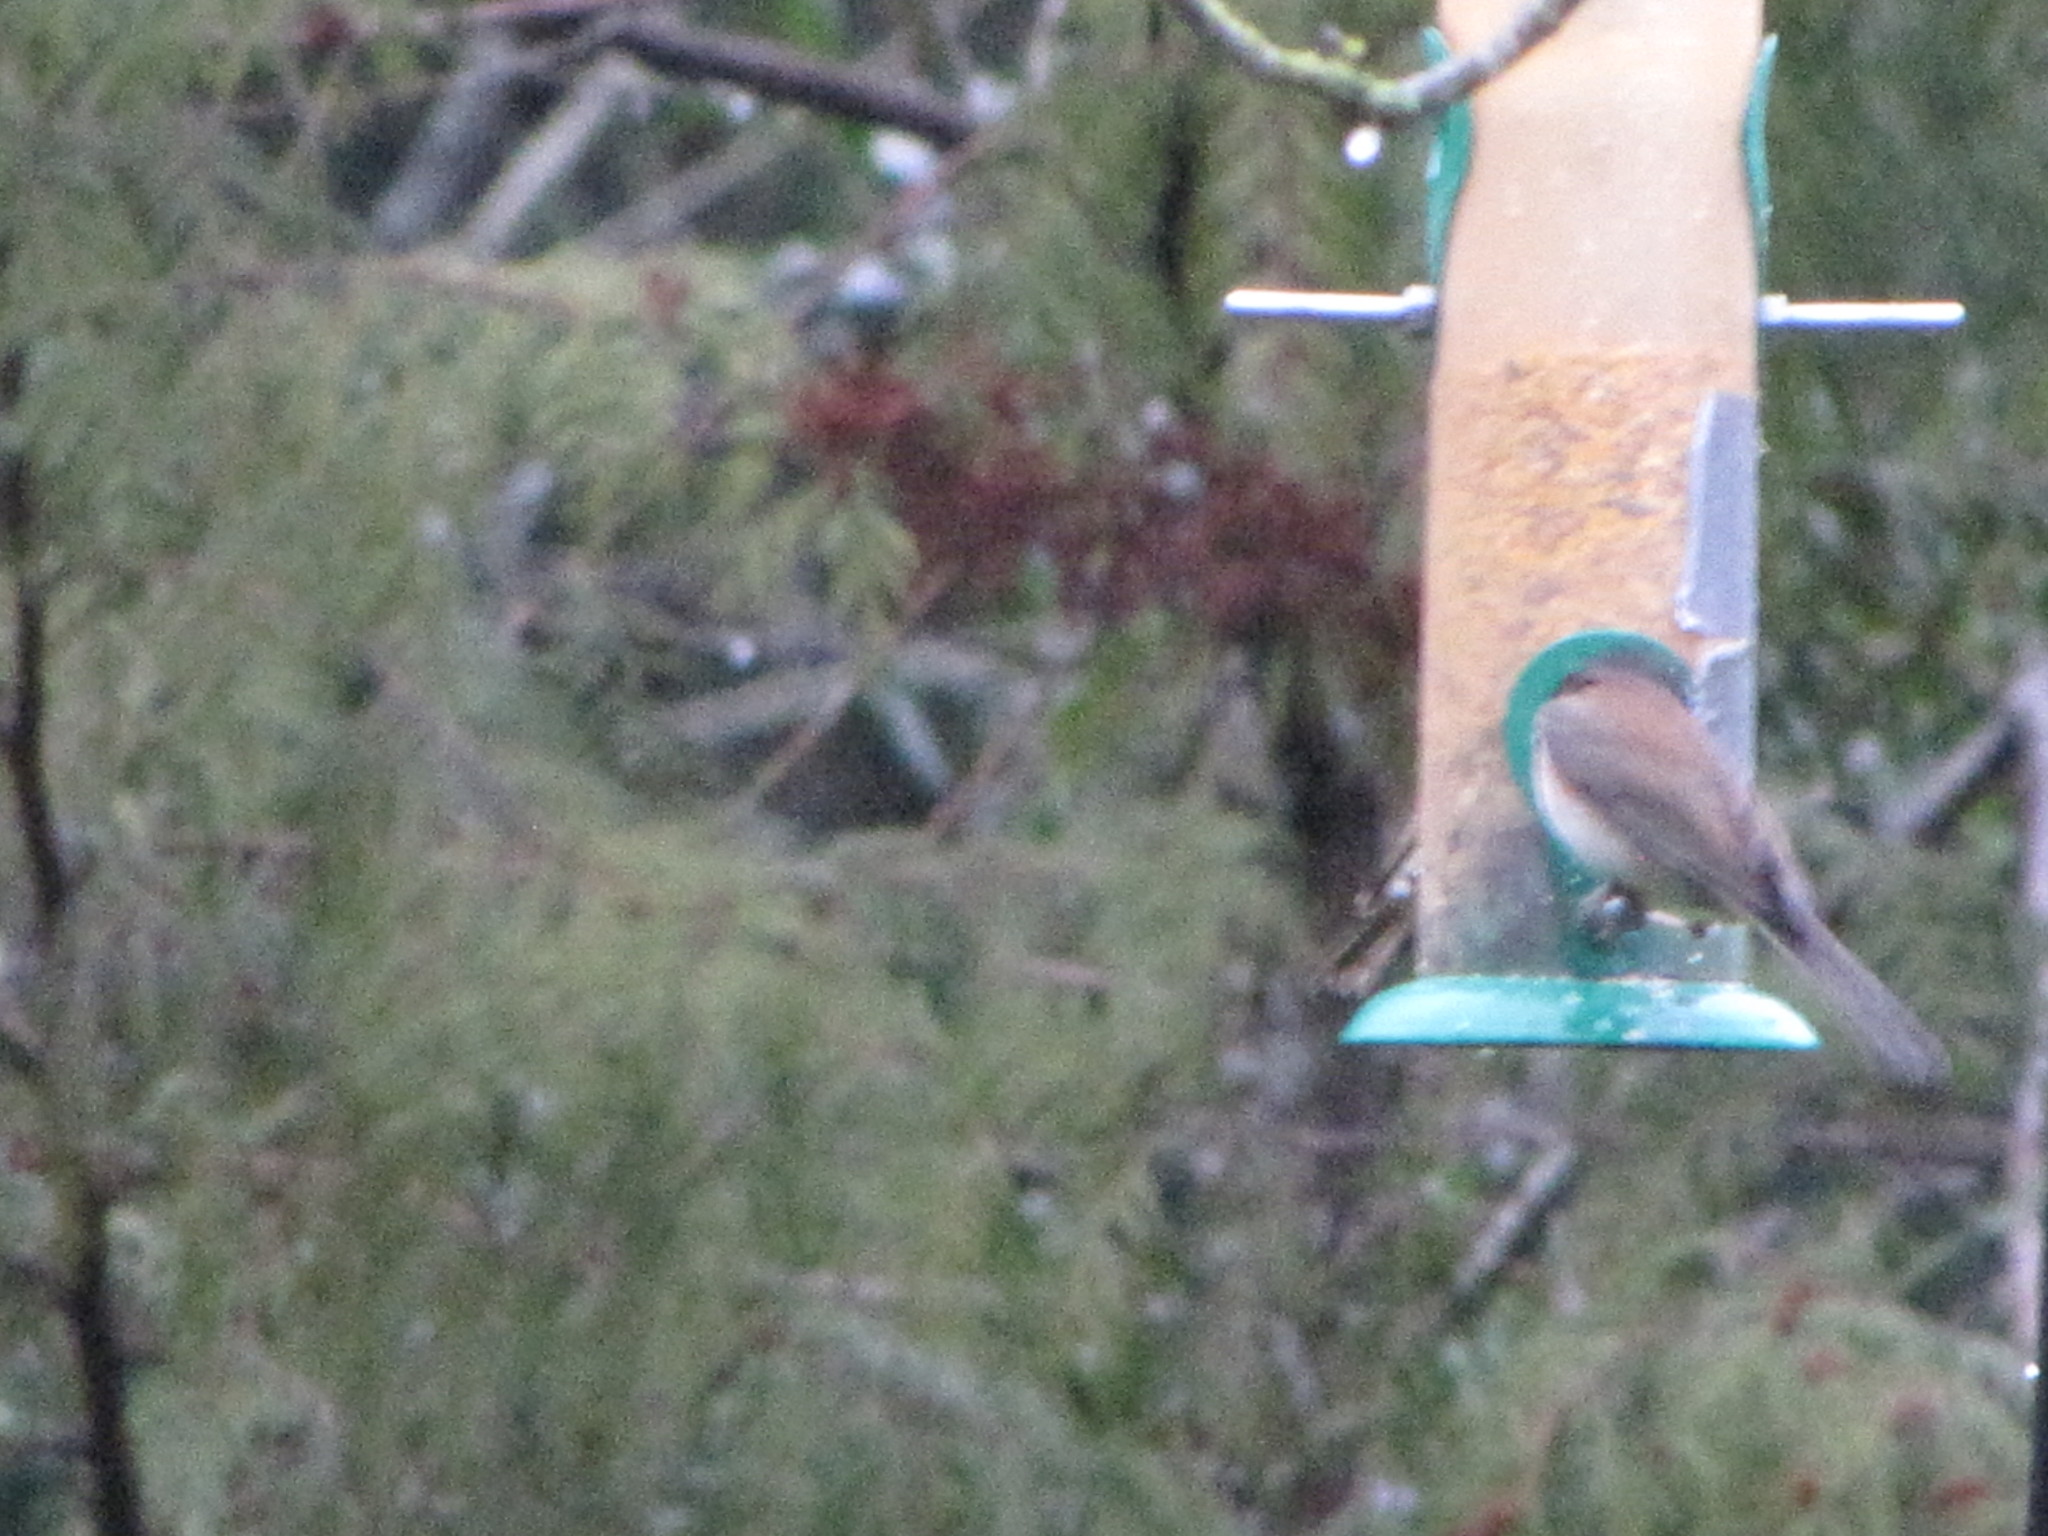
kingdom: Animalia
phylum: Chordata
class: Aves
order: Passeriformes
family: Passerellidae
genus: Junco
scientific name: Junco hyemalis
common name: Dark-eyed junco
